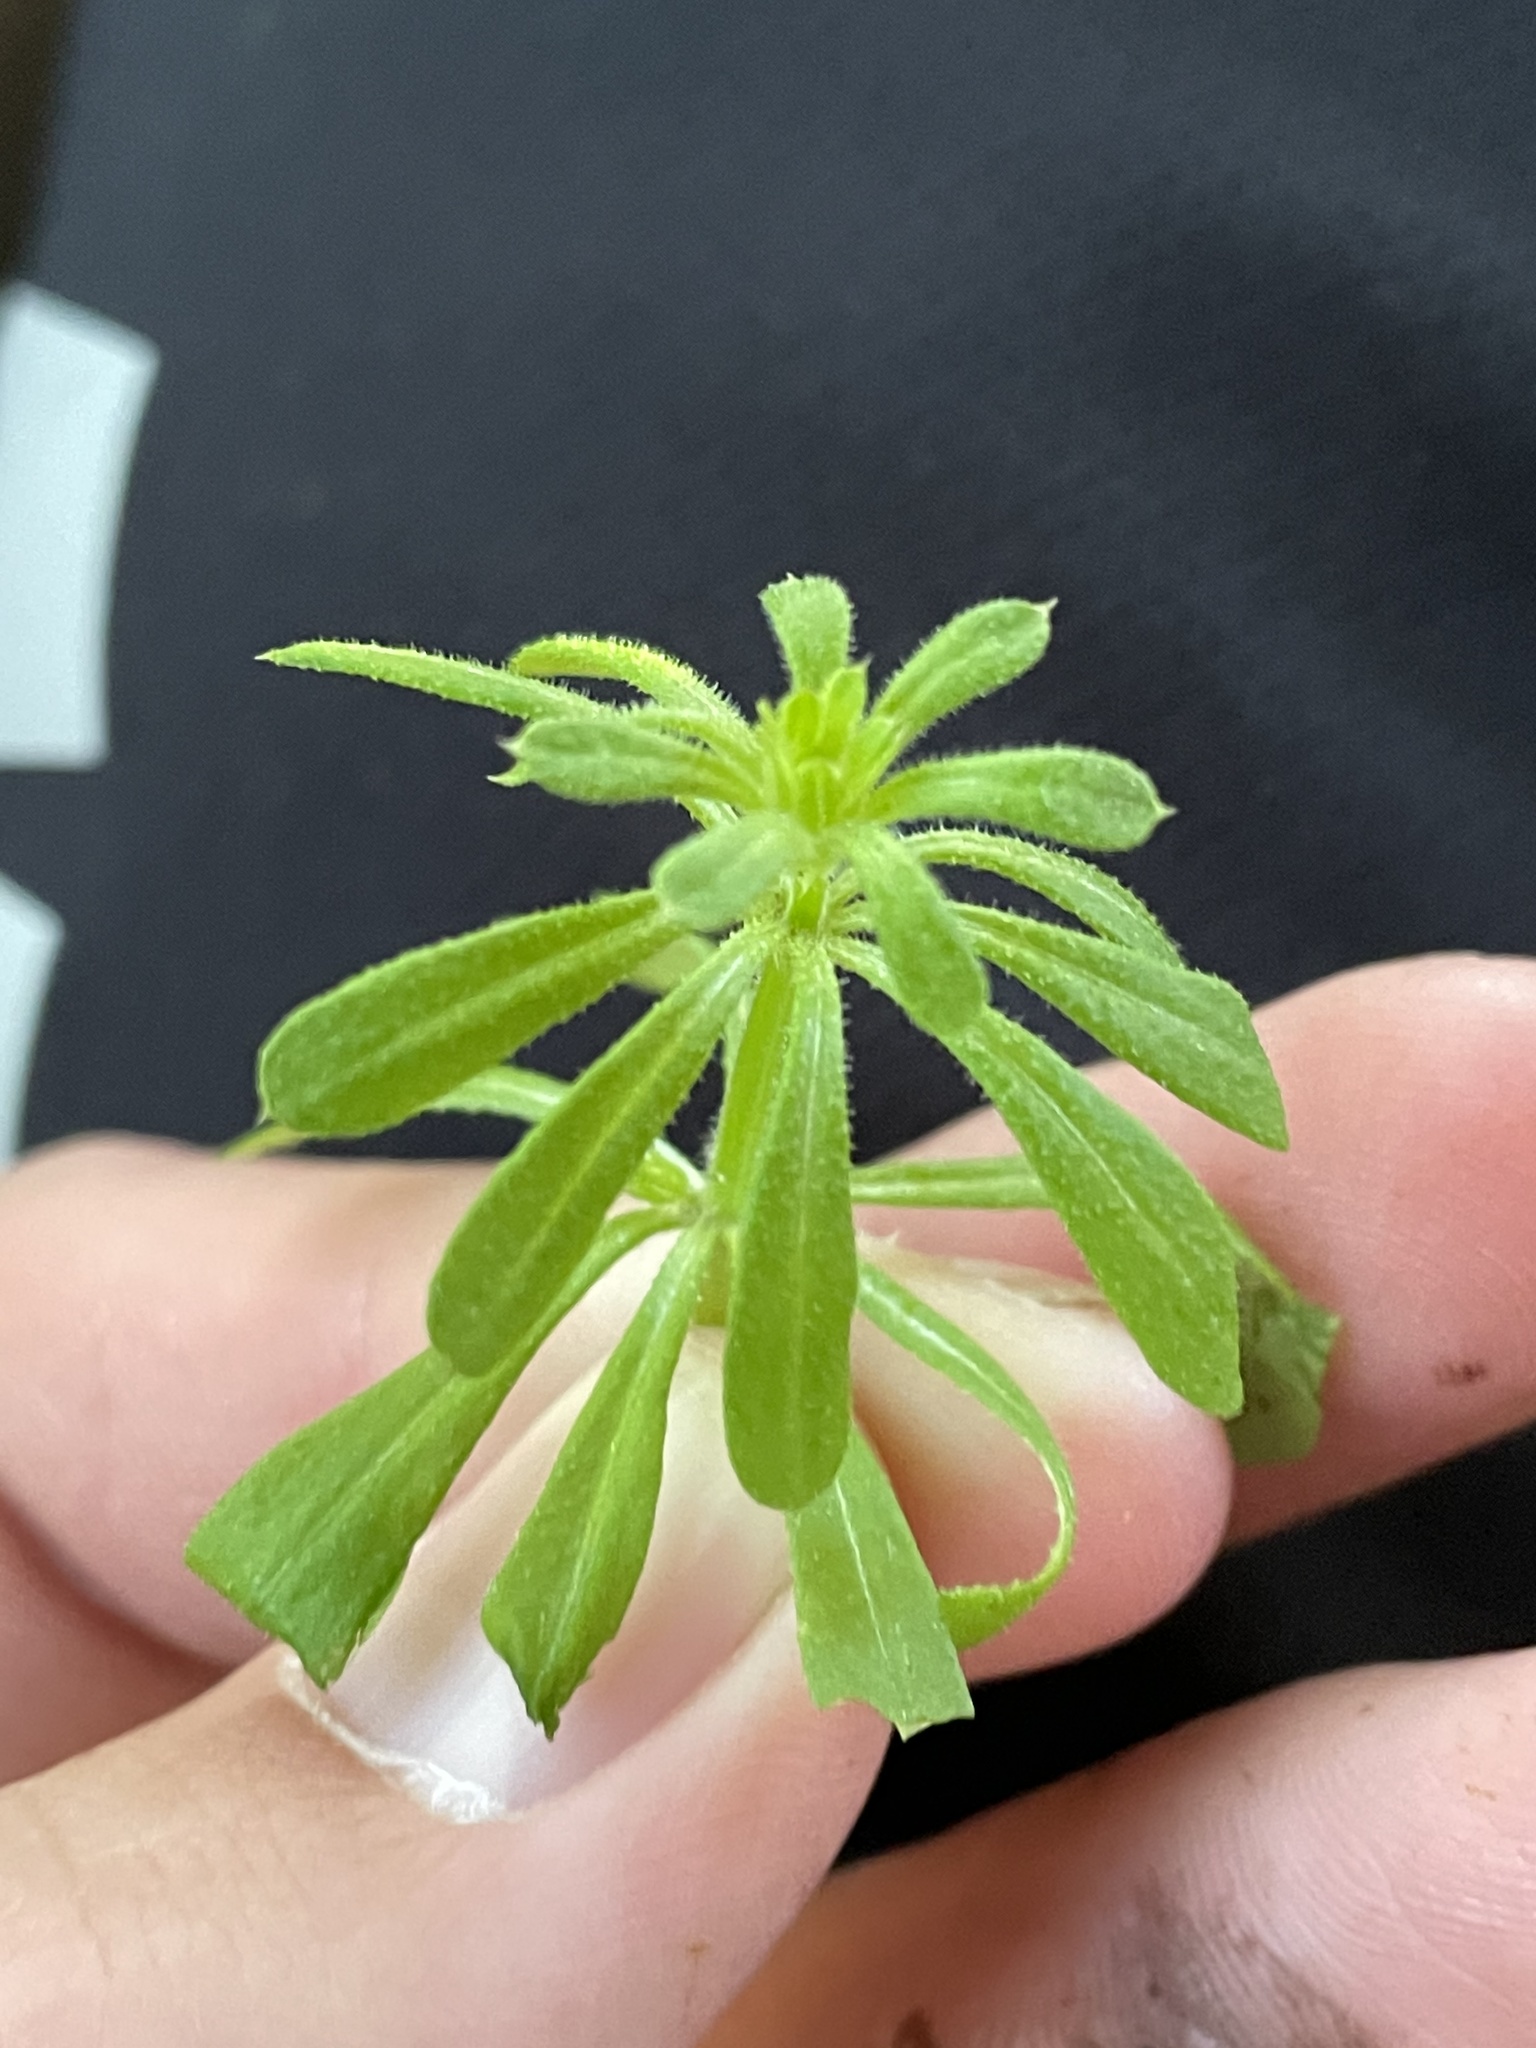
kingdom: Plantae
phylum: Tracheophyta
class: Magnoliopsida
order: Gentianales
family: Rubiaceae
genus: Galium
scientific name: Galium aparine
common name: Cleavers
